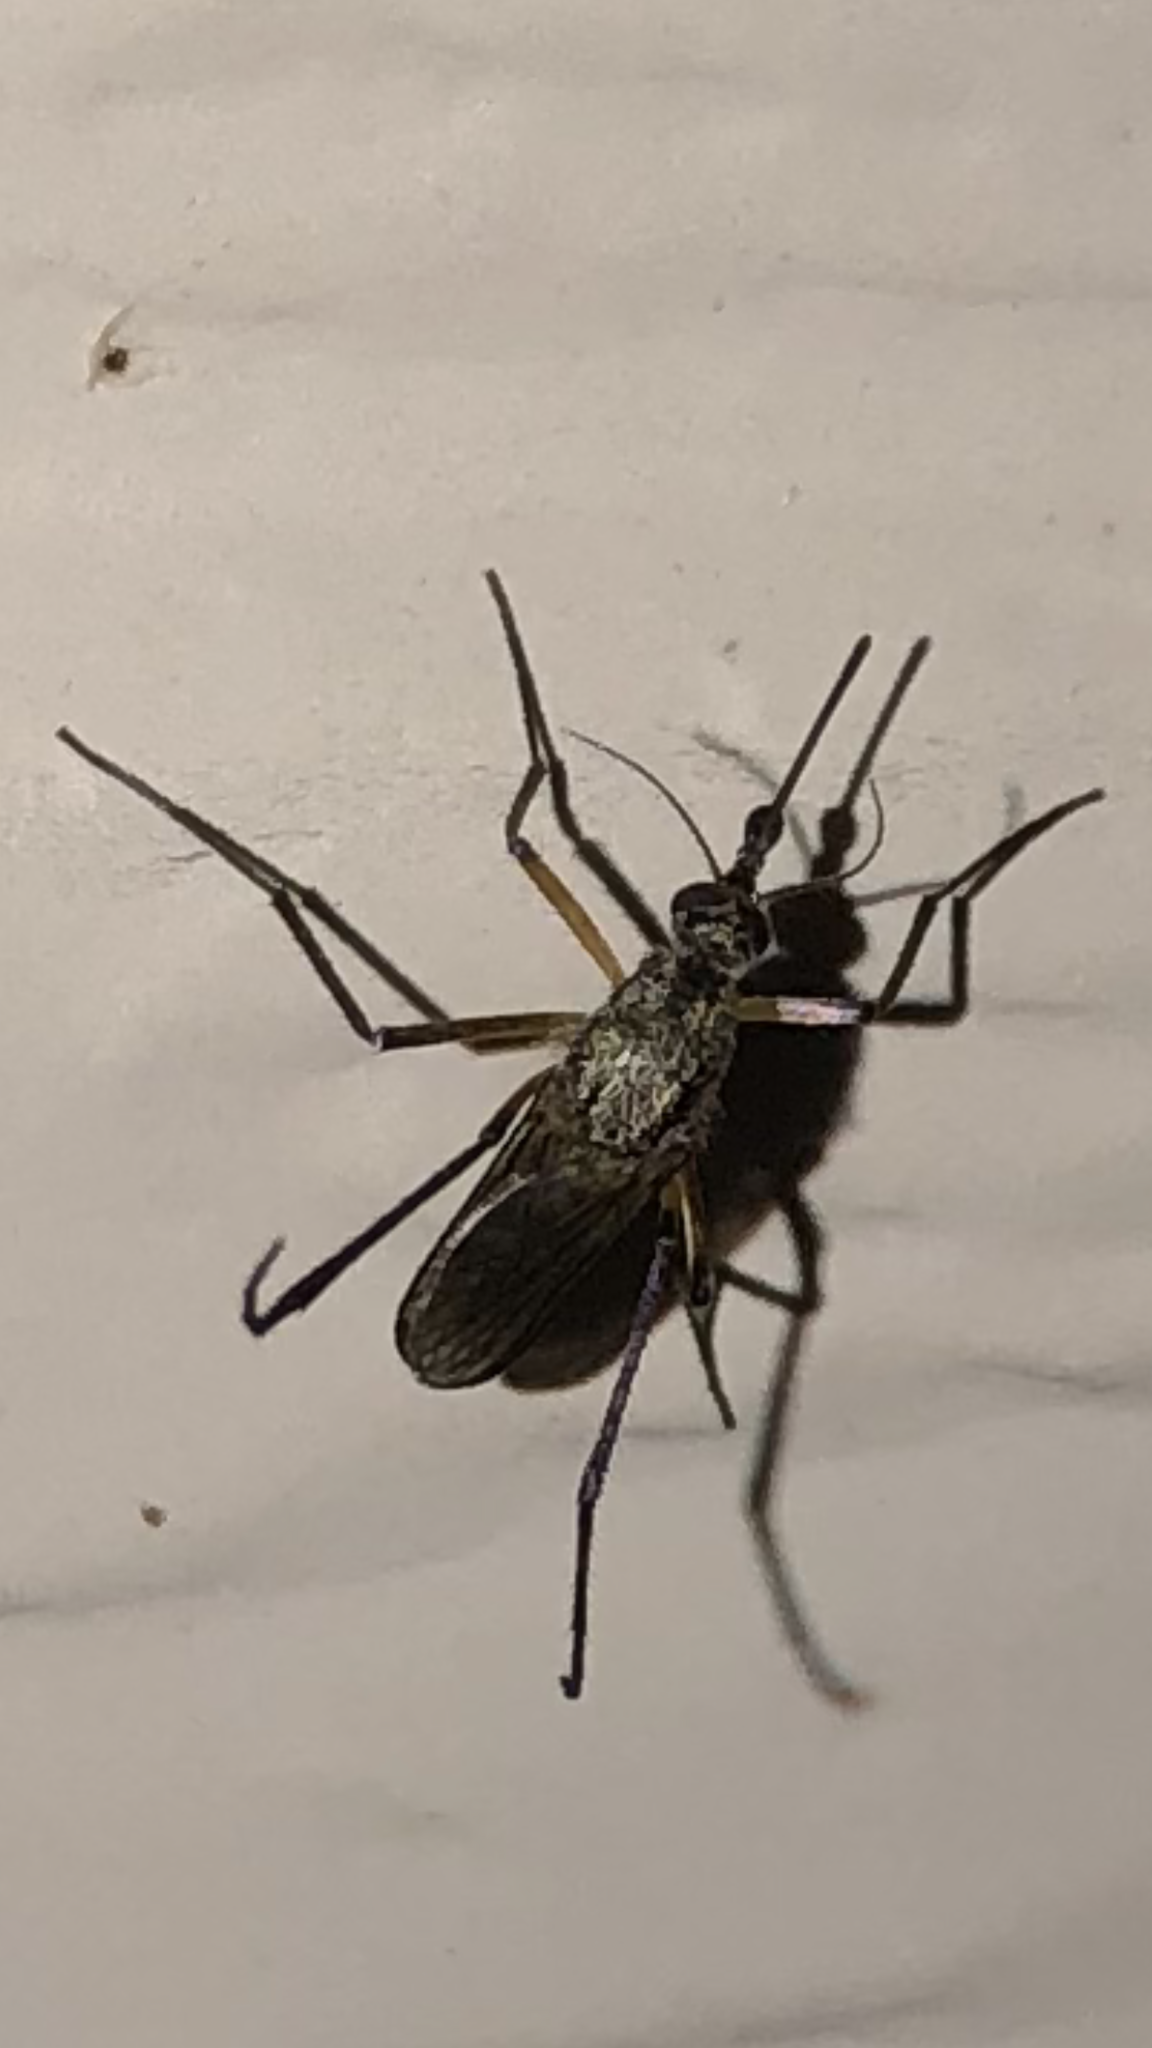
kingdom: Animalia
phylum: Arthropoda
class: Insecta
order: Diptera
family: Culicidae
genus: Psorophora
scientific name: Psorophora cyanescens
